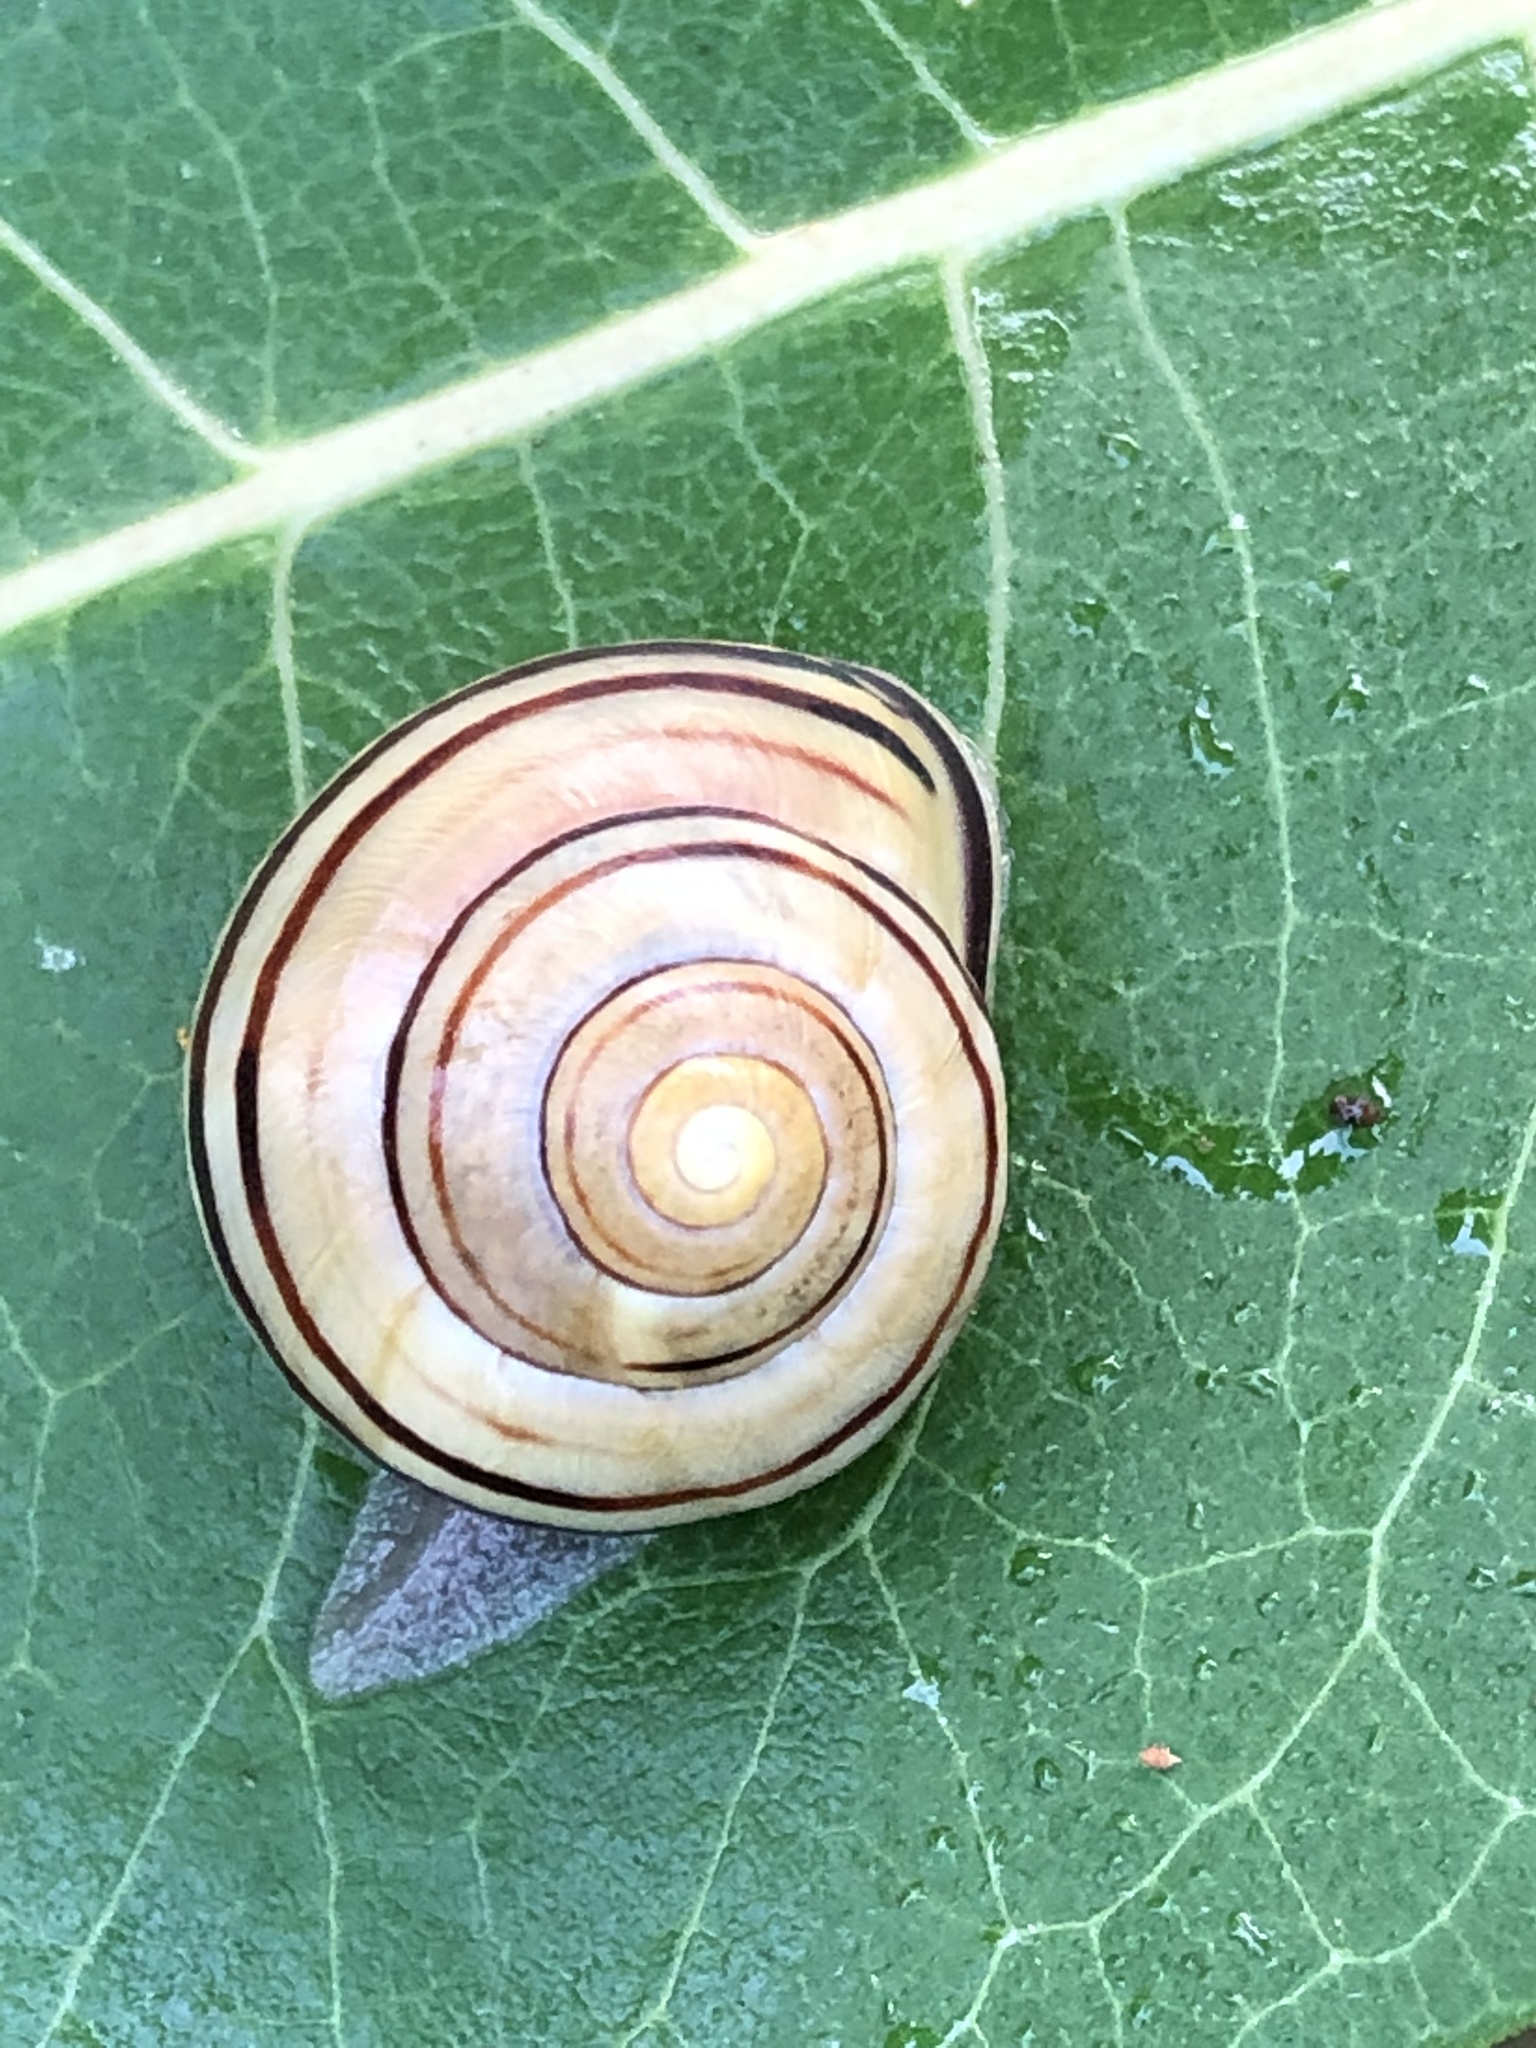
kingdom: Animalia
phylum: Mollusca
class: Gastropoda
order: Stylommatophora
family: Helicidae
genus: Cepaea
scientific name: Cepaea nemoralis
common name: Grovesnail
